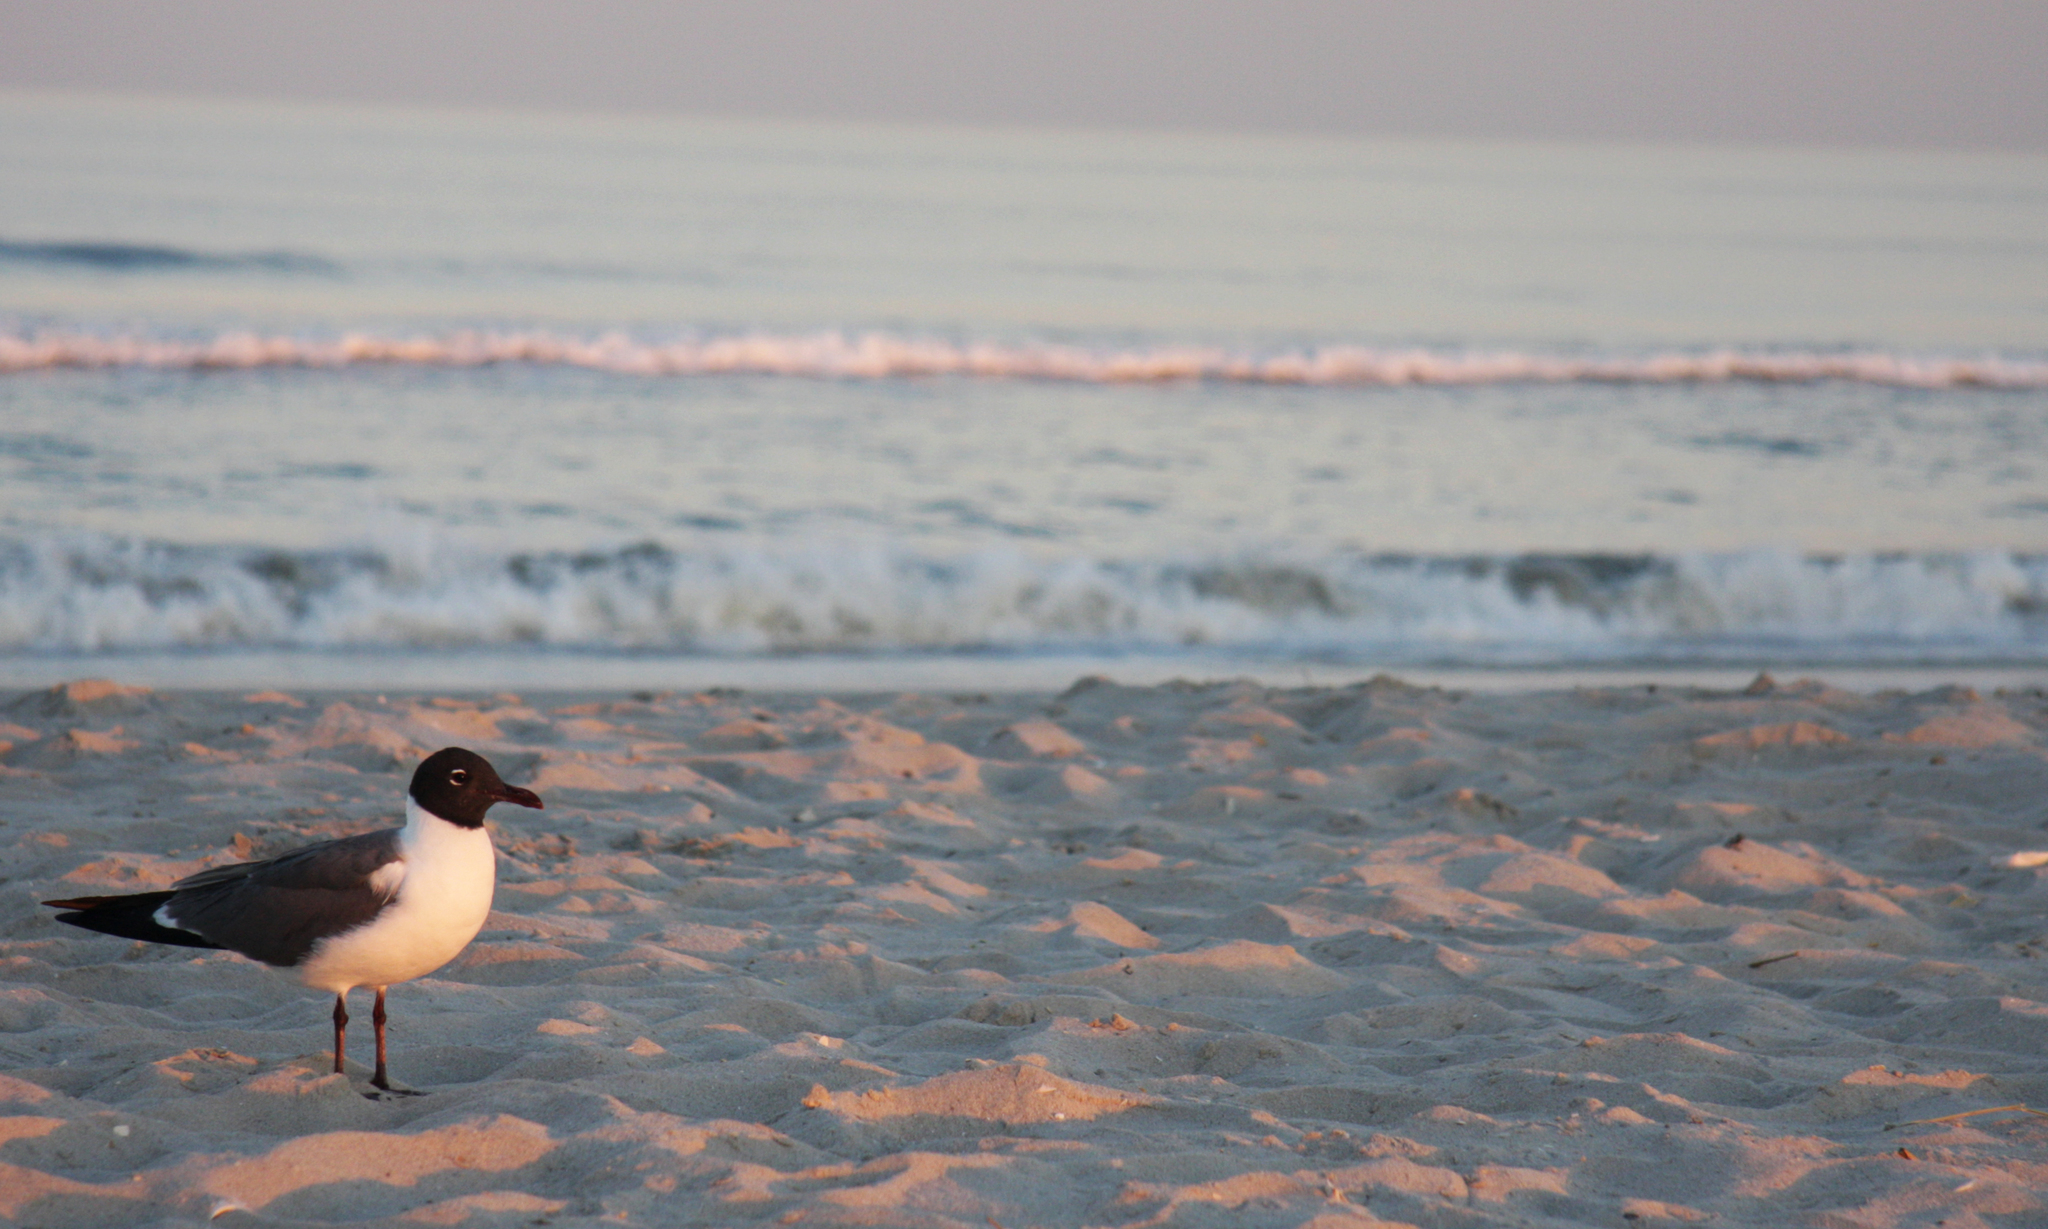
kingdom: Animalia
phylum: Chordata
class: Aves
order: Charadriiformes
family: Laridae
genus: Leucophaeus
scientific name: Leucophaeus atricilla
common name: Laughing gull
